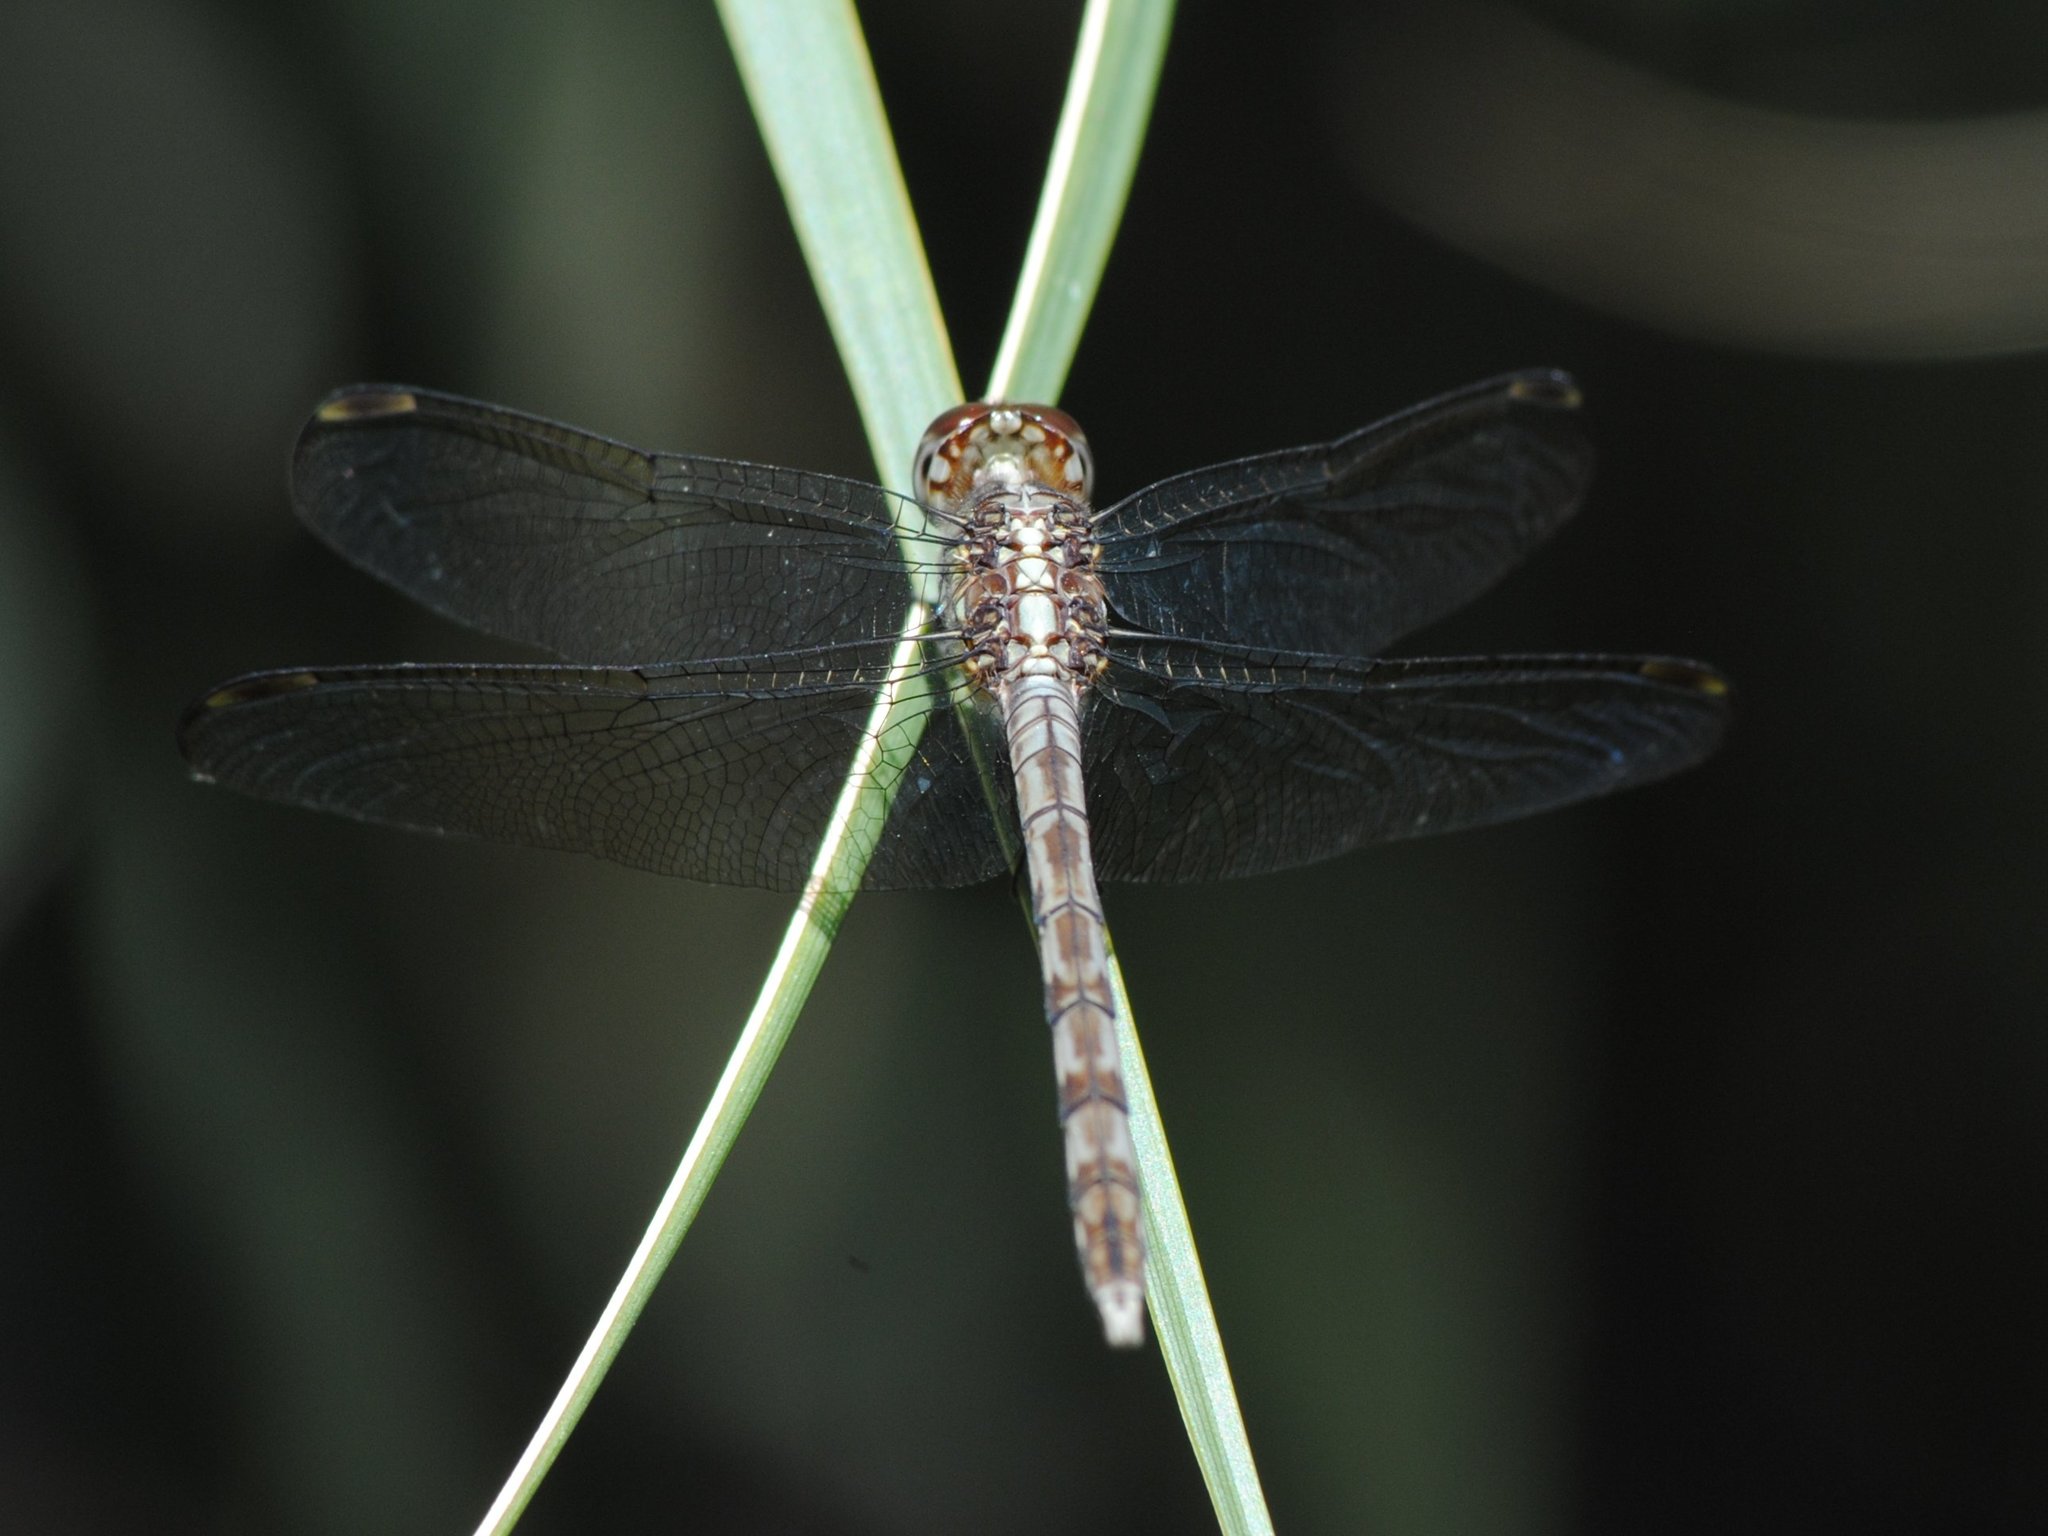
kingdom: Animalia
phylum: Arthropoda
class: Insecta
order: Odonata
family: Libellulidae
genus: Erythrodiplax
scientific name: Erythrodiplax umbrata
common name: Band-winged dragonlet
